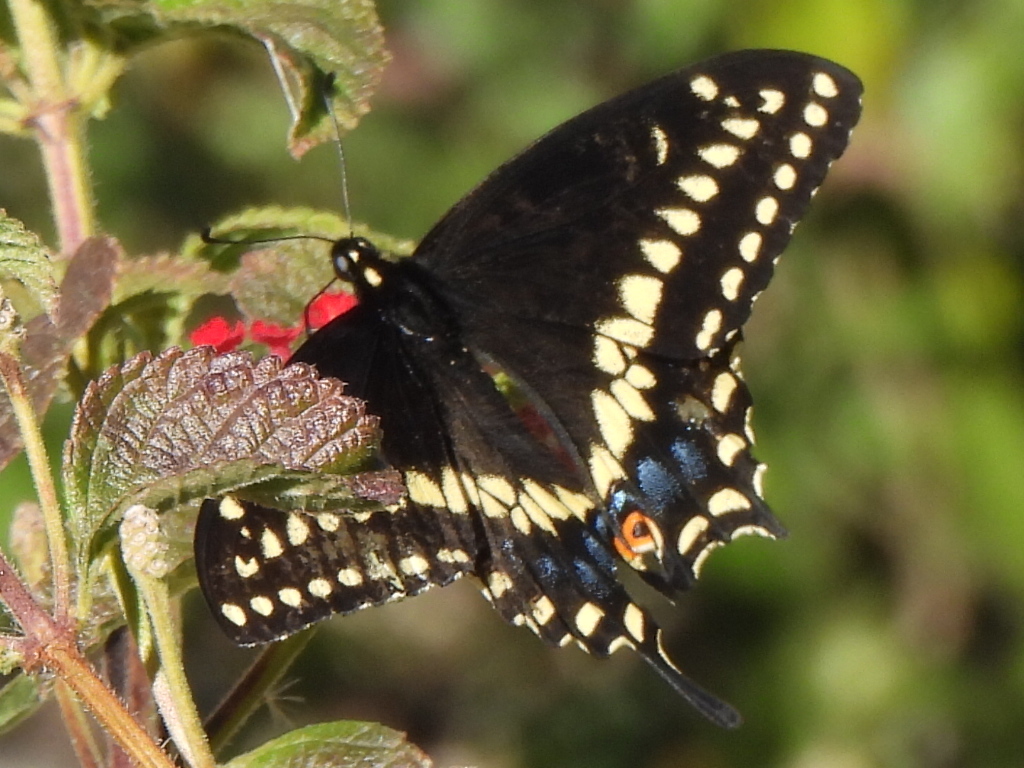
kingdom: Animalia
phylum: Arthropoda
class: Insecta
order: Lepidoptera
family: Papilionidae
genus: Papilio
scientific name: Papilio polyxenes
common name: Black swallowtail
